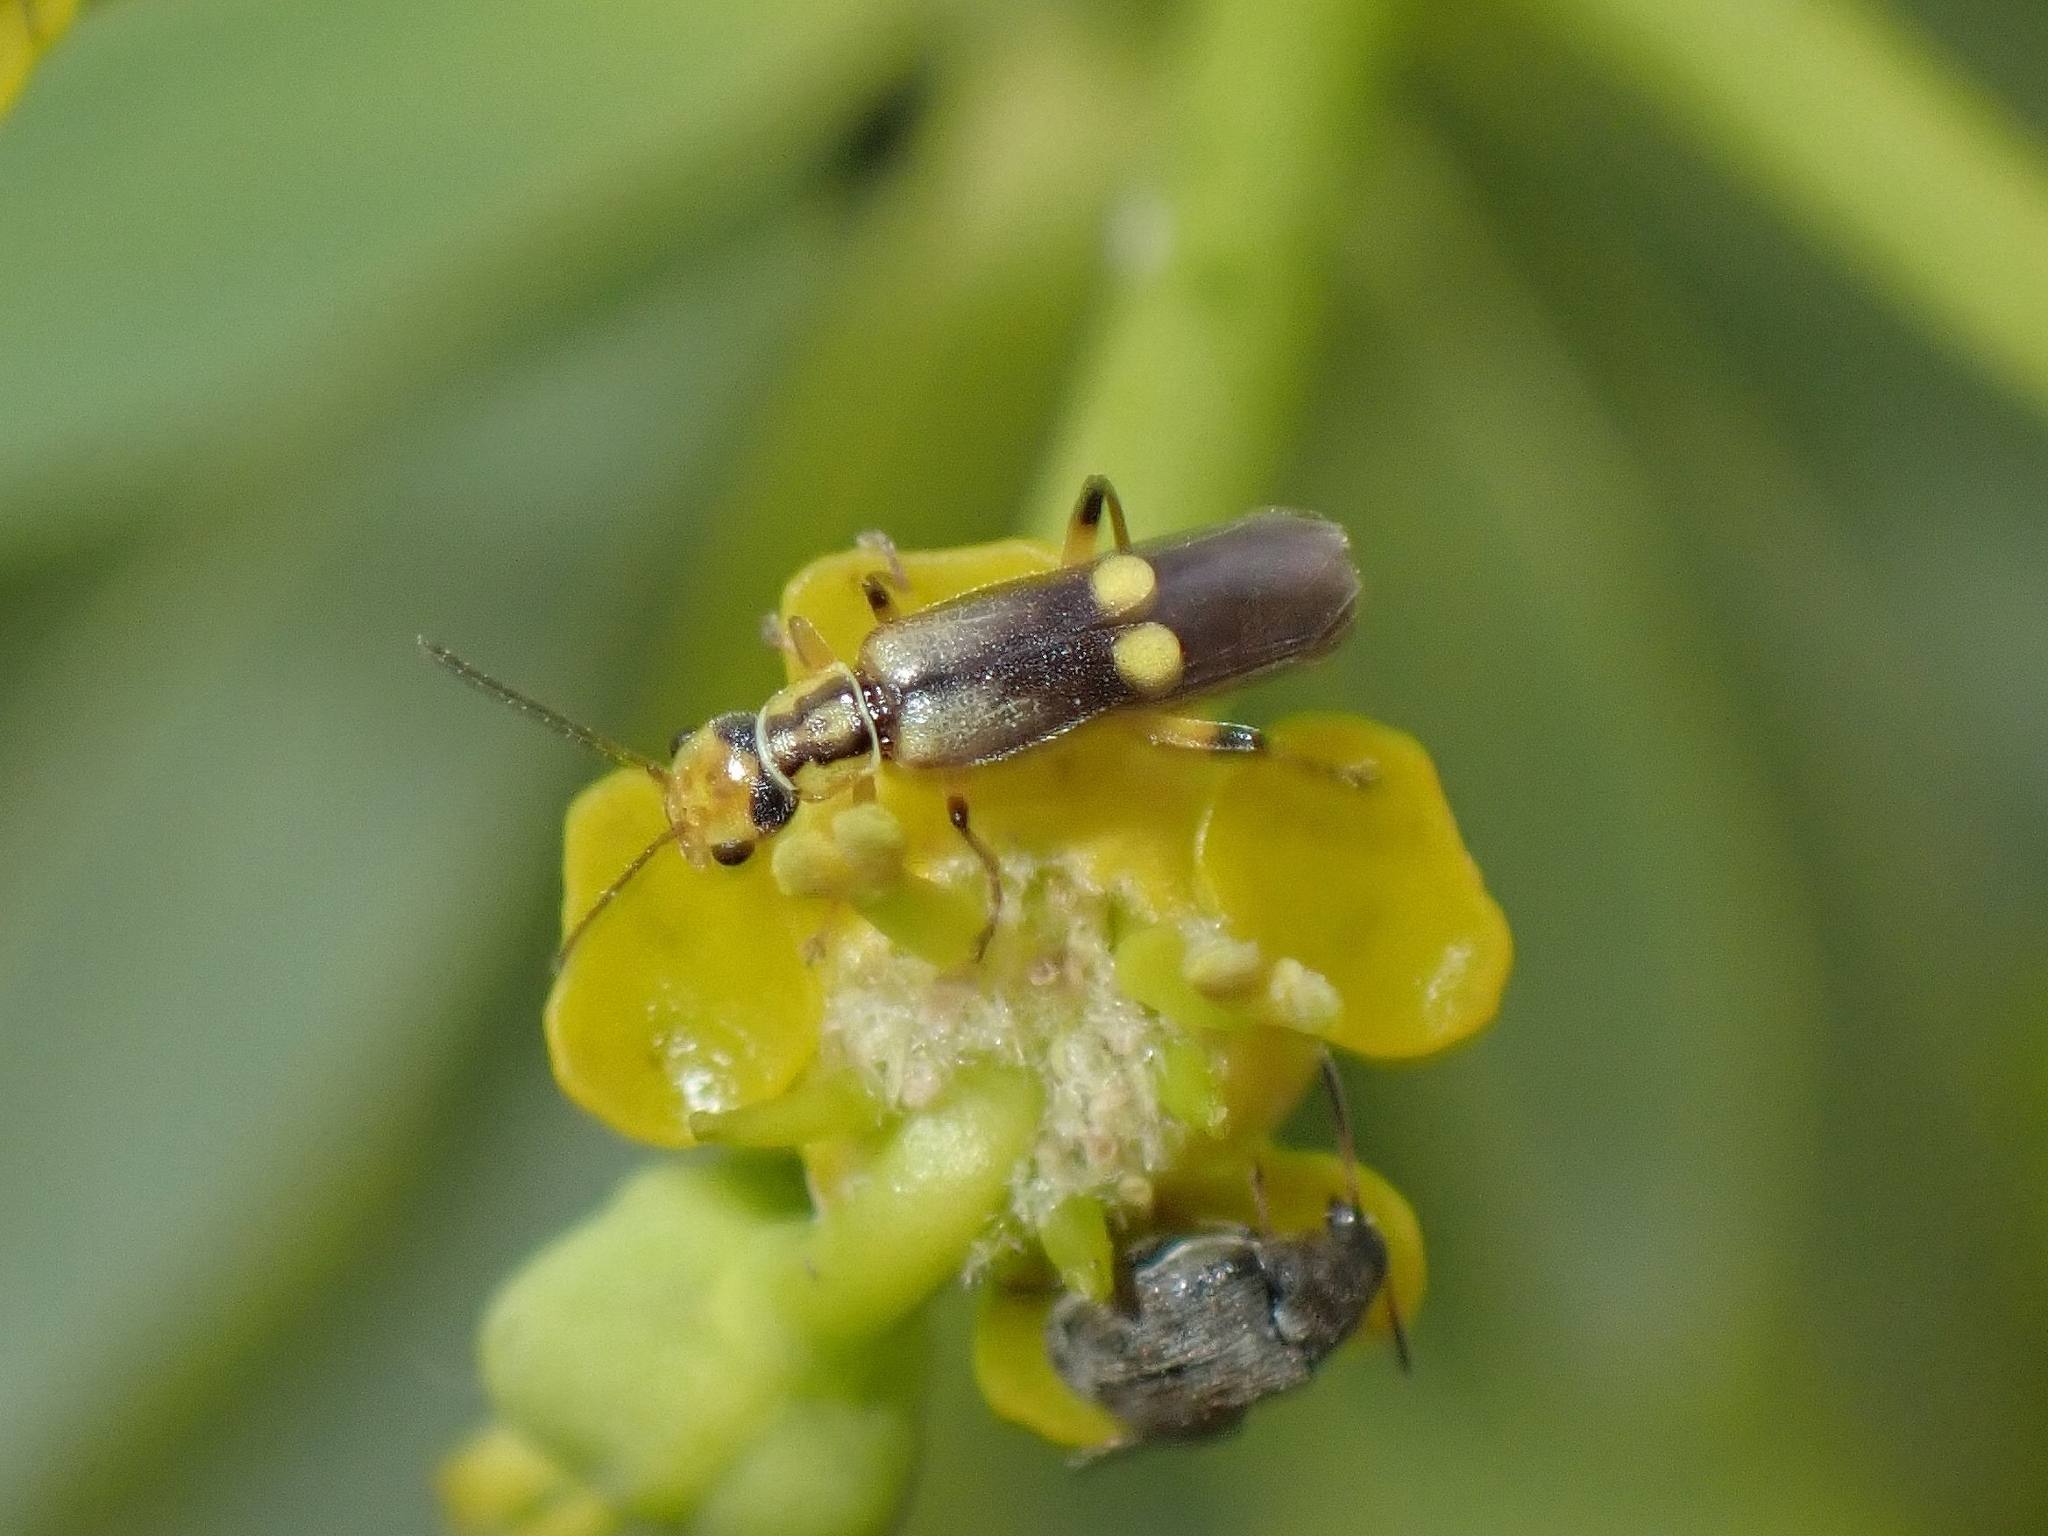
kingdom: Animalia
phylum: Arthropoda
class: Insecta
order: Coleoptera
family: Cantharidae
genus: Malthinus
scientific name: Malthinus mutabilis
